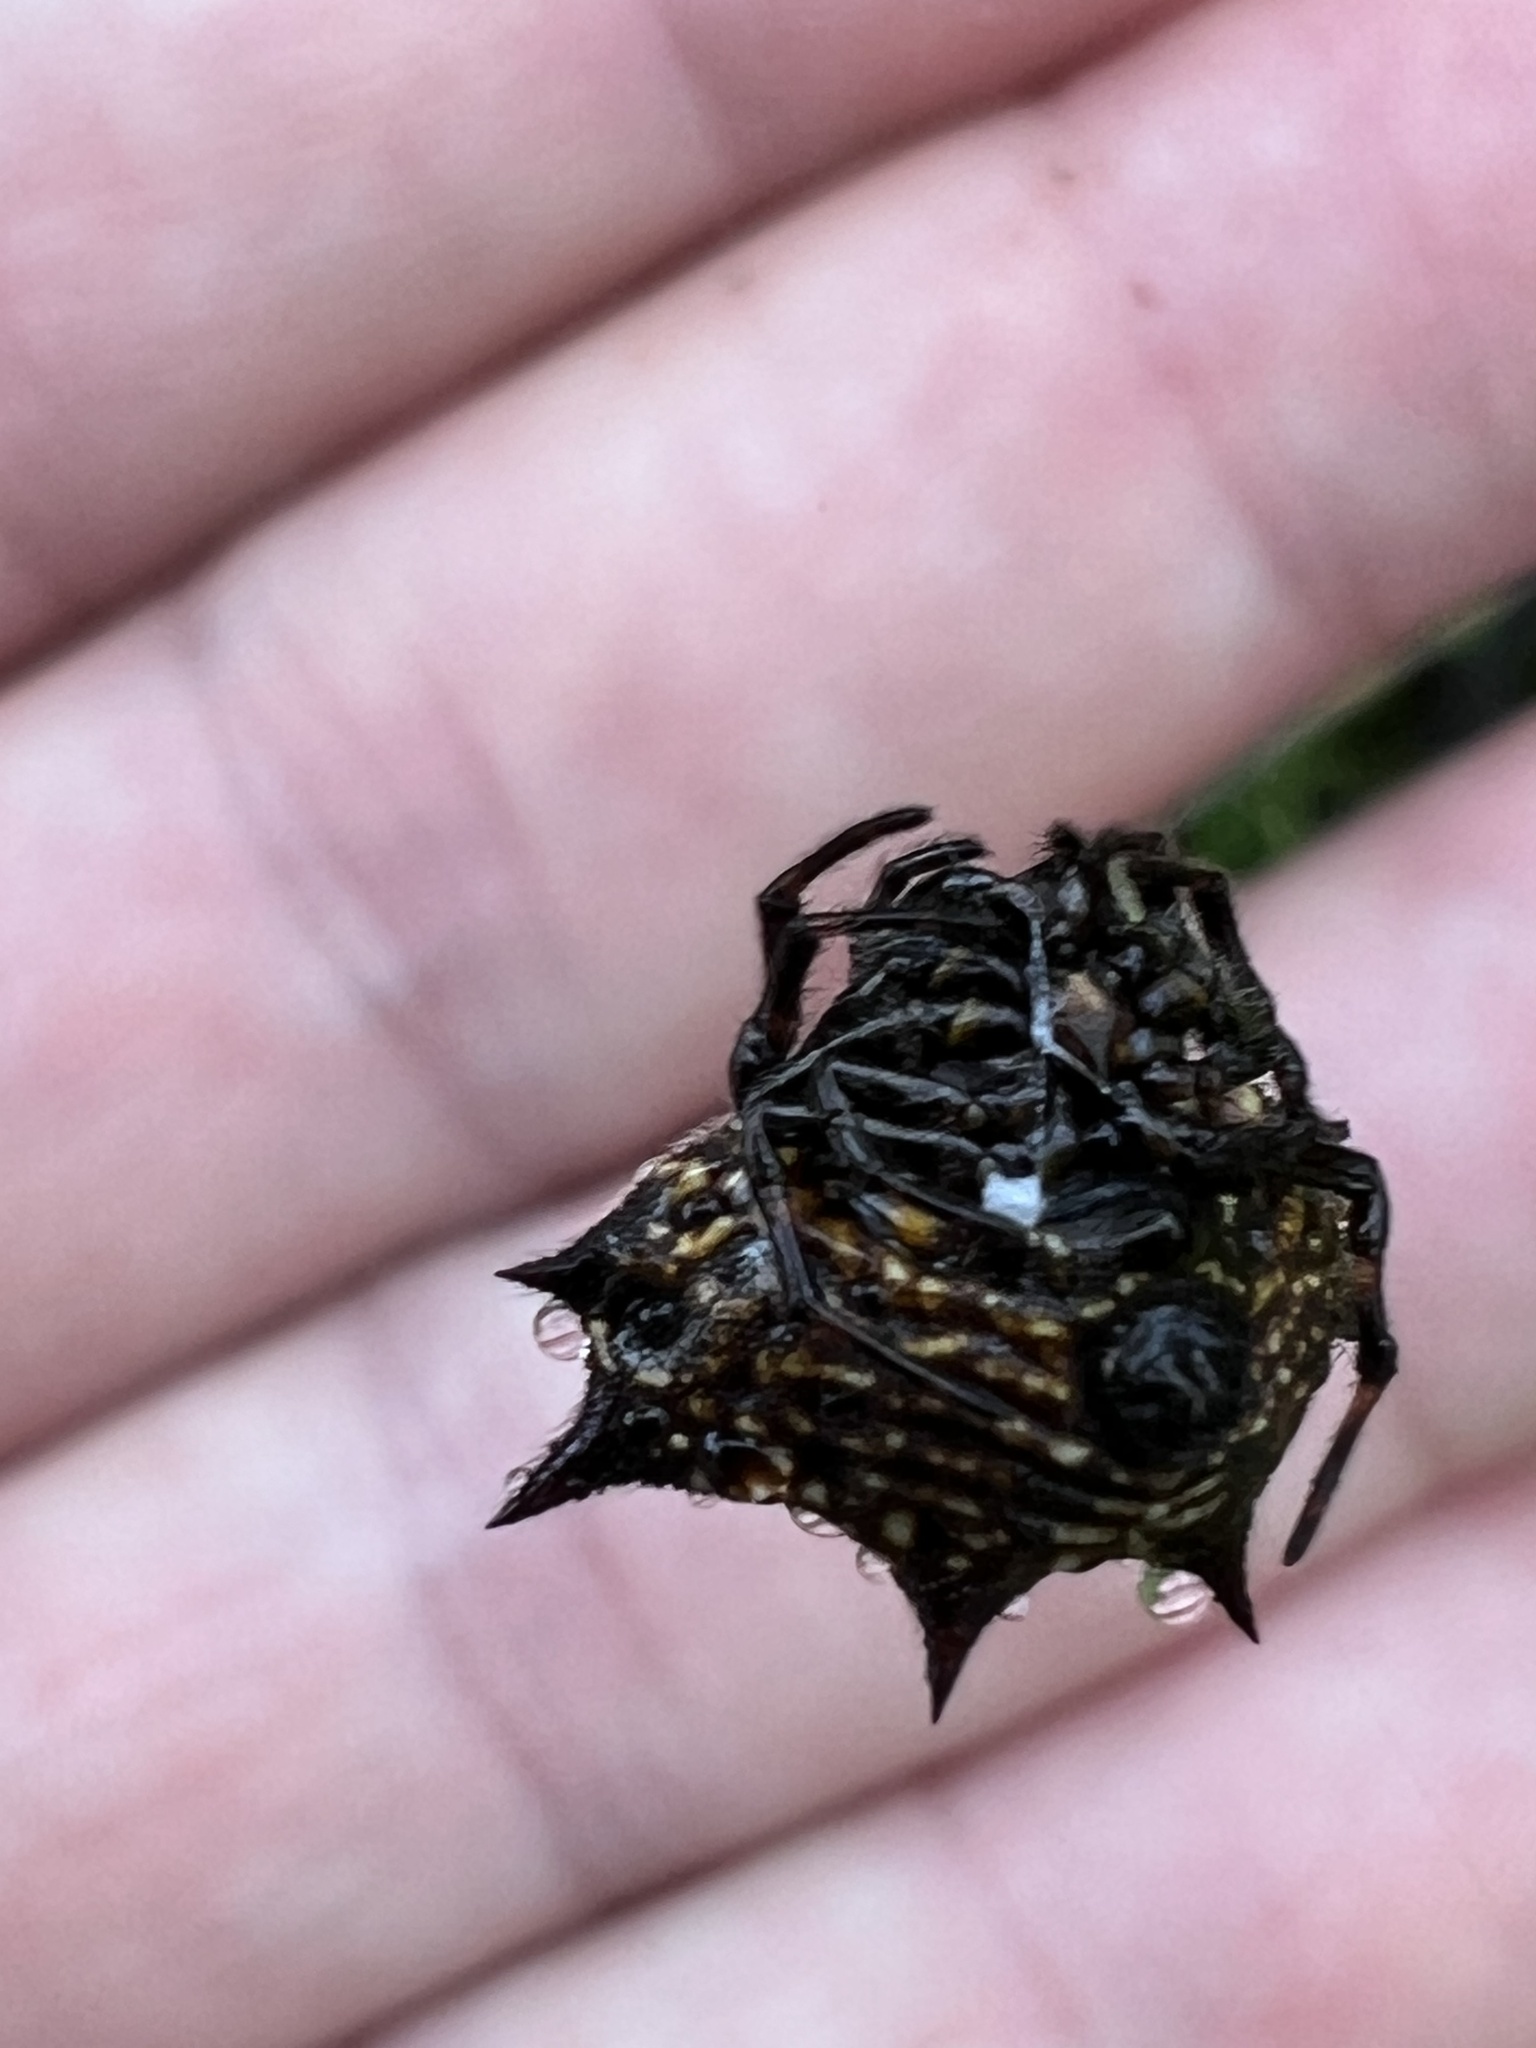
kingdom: Animalia
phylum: Arthropoda
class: Arachnida
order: Araneae
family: Araneidae
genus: Gasteracantha
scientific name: Gasteracantha cancriformis
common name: Orb weavers
